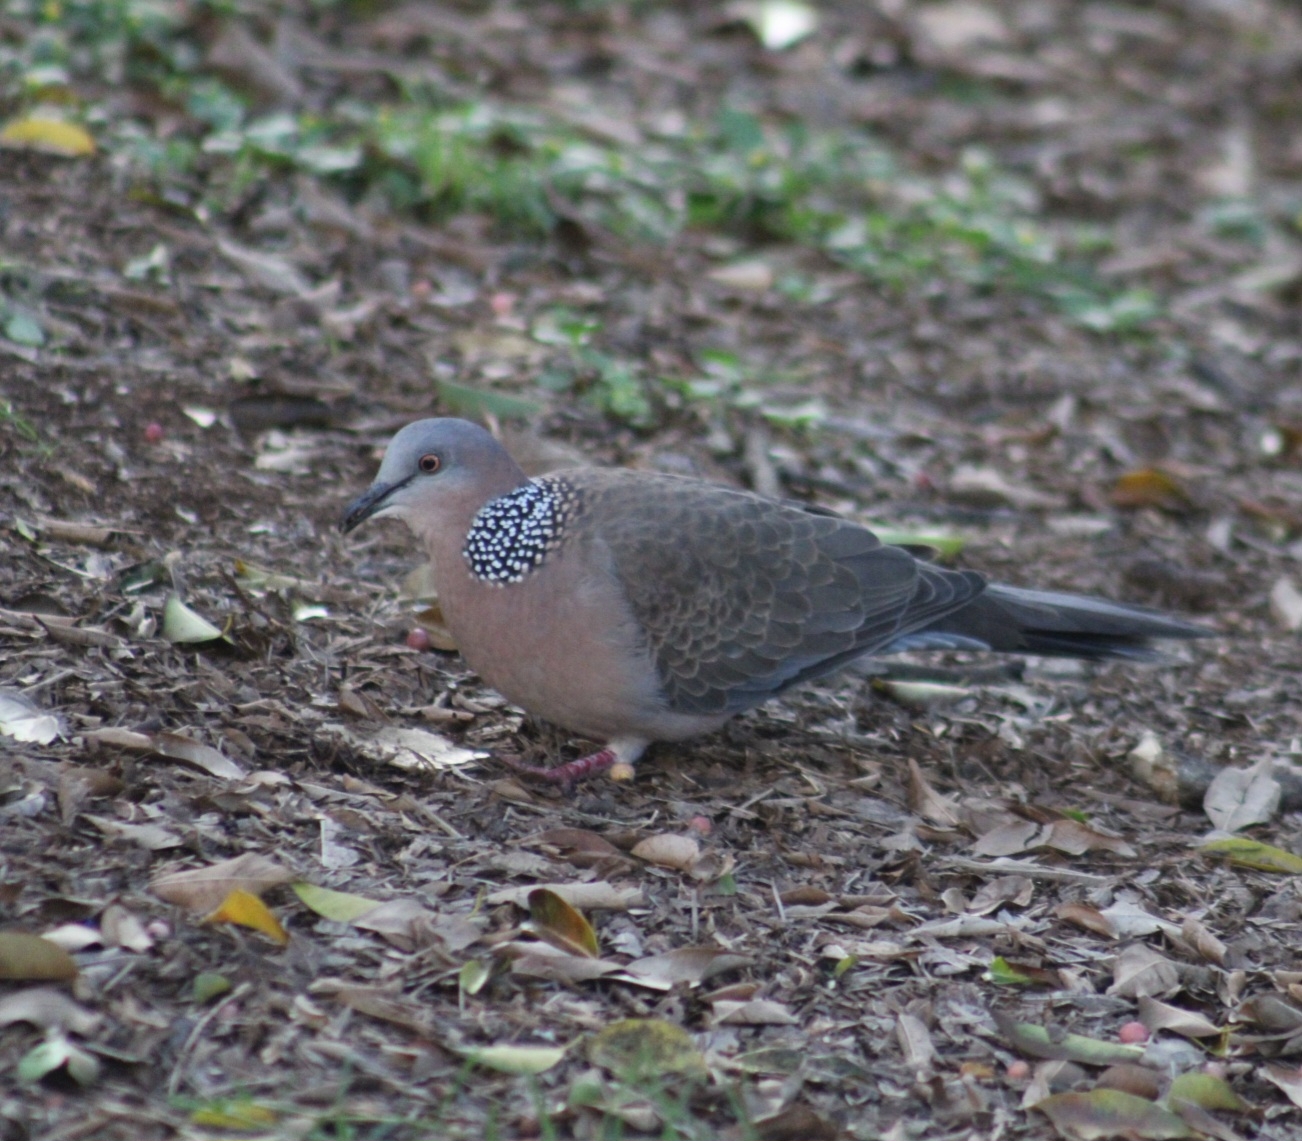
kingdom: Animalia
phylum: Chordata
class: Aves
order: Columbiformes
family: Columbidae
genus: Spilopelia
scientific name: Spilopelia chinensis
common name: Spotted dove
